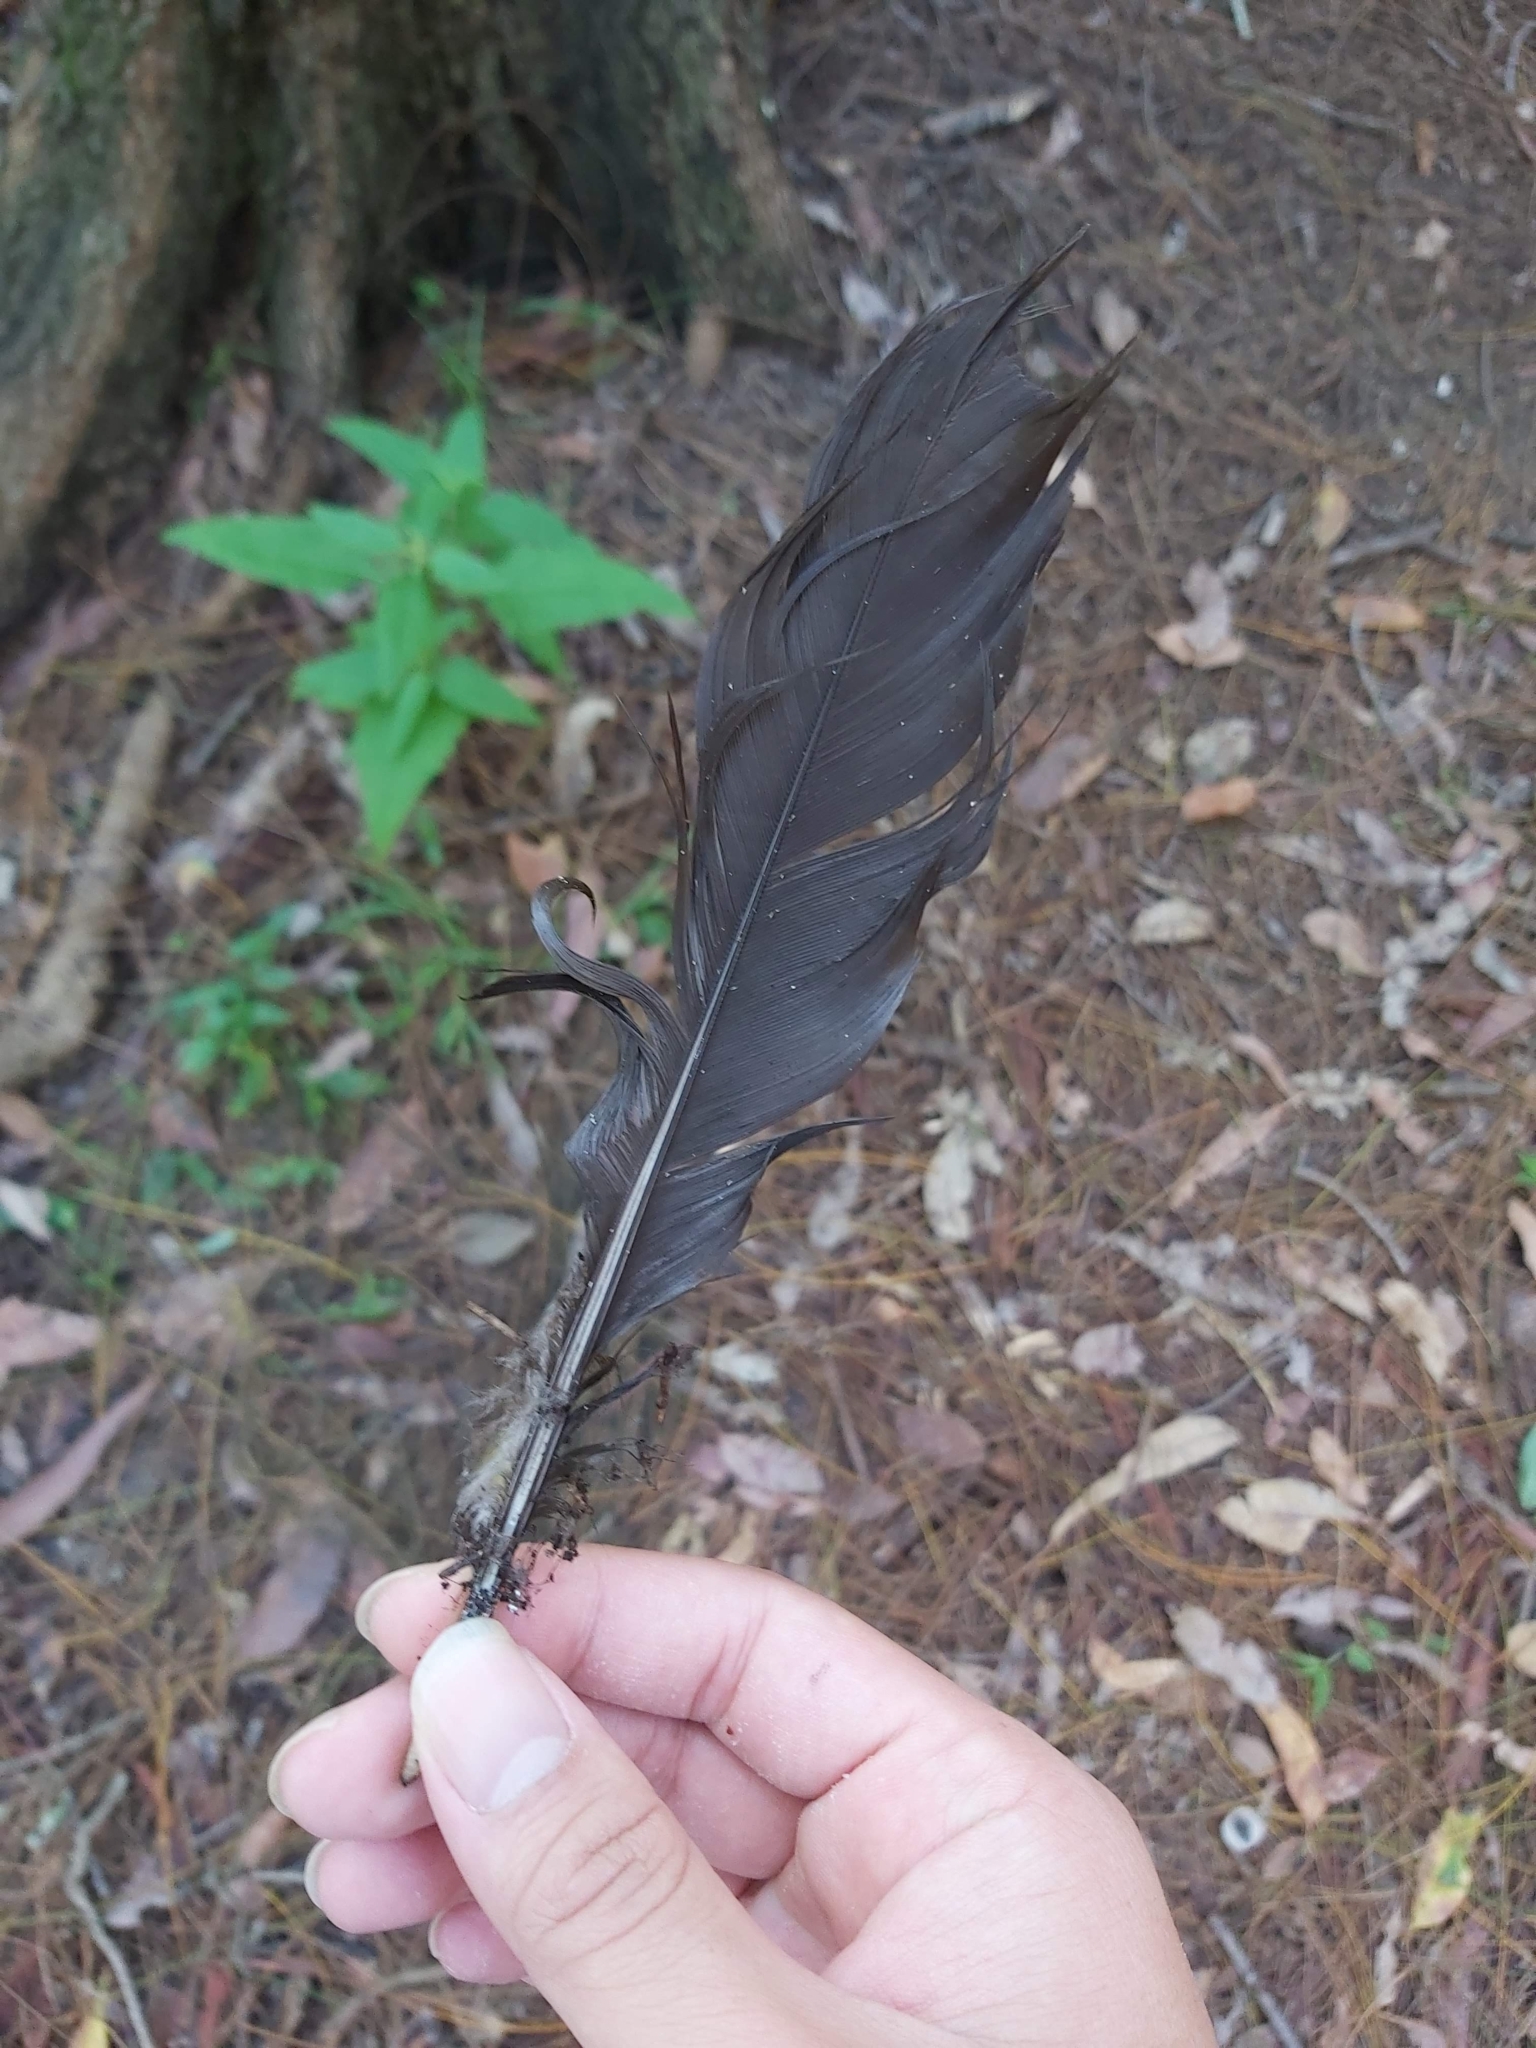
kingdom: Animalia
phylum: Chordata
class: Aves
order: Galliformes
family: Megapodiidae
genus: Alectura
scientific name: Alectura lathami
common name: Australian brushturkey
